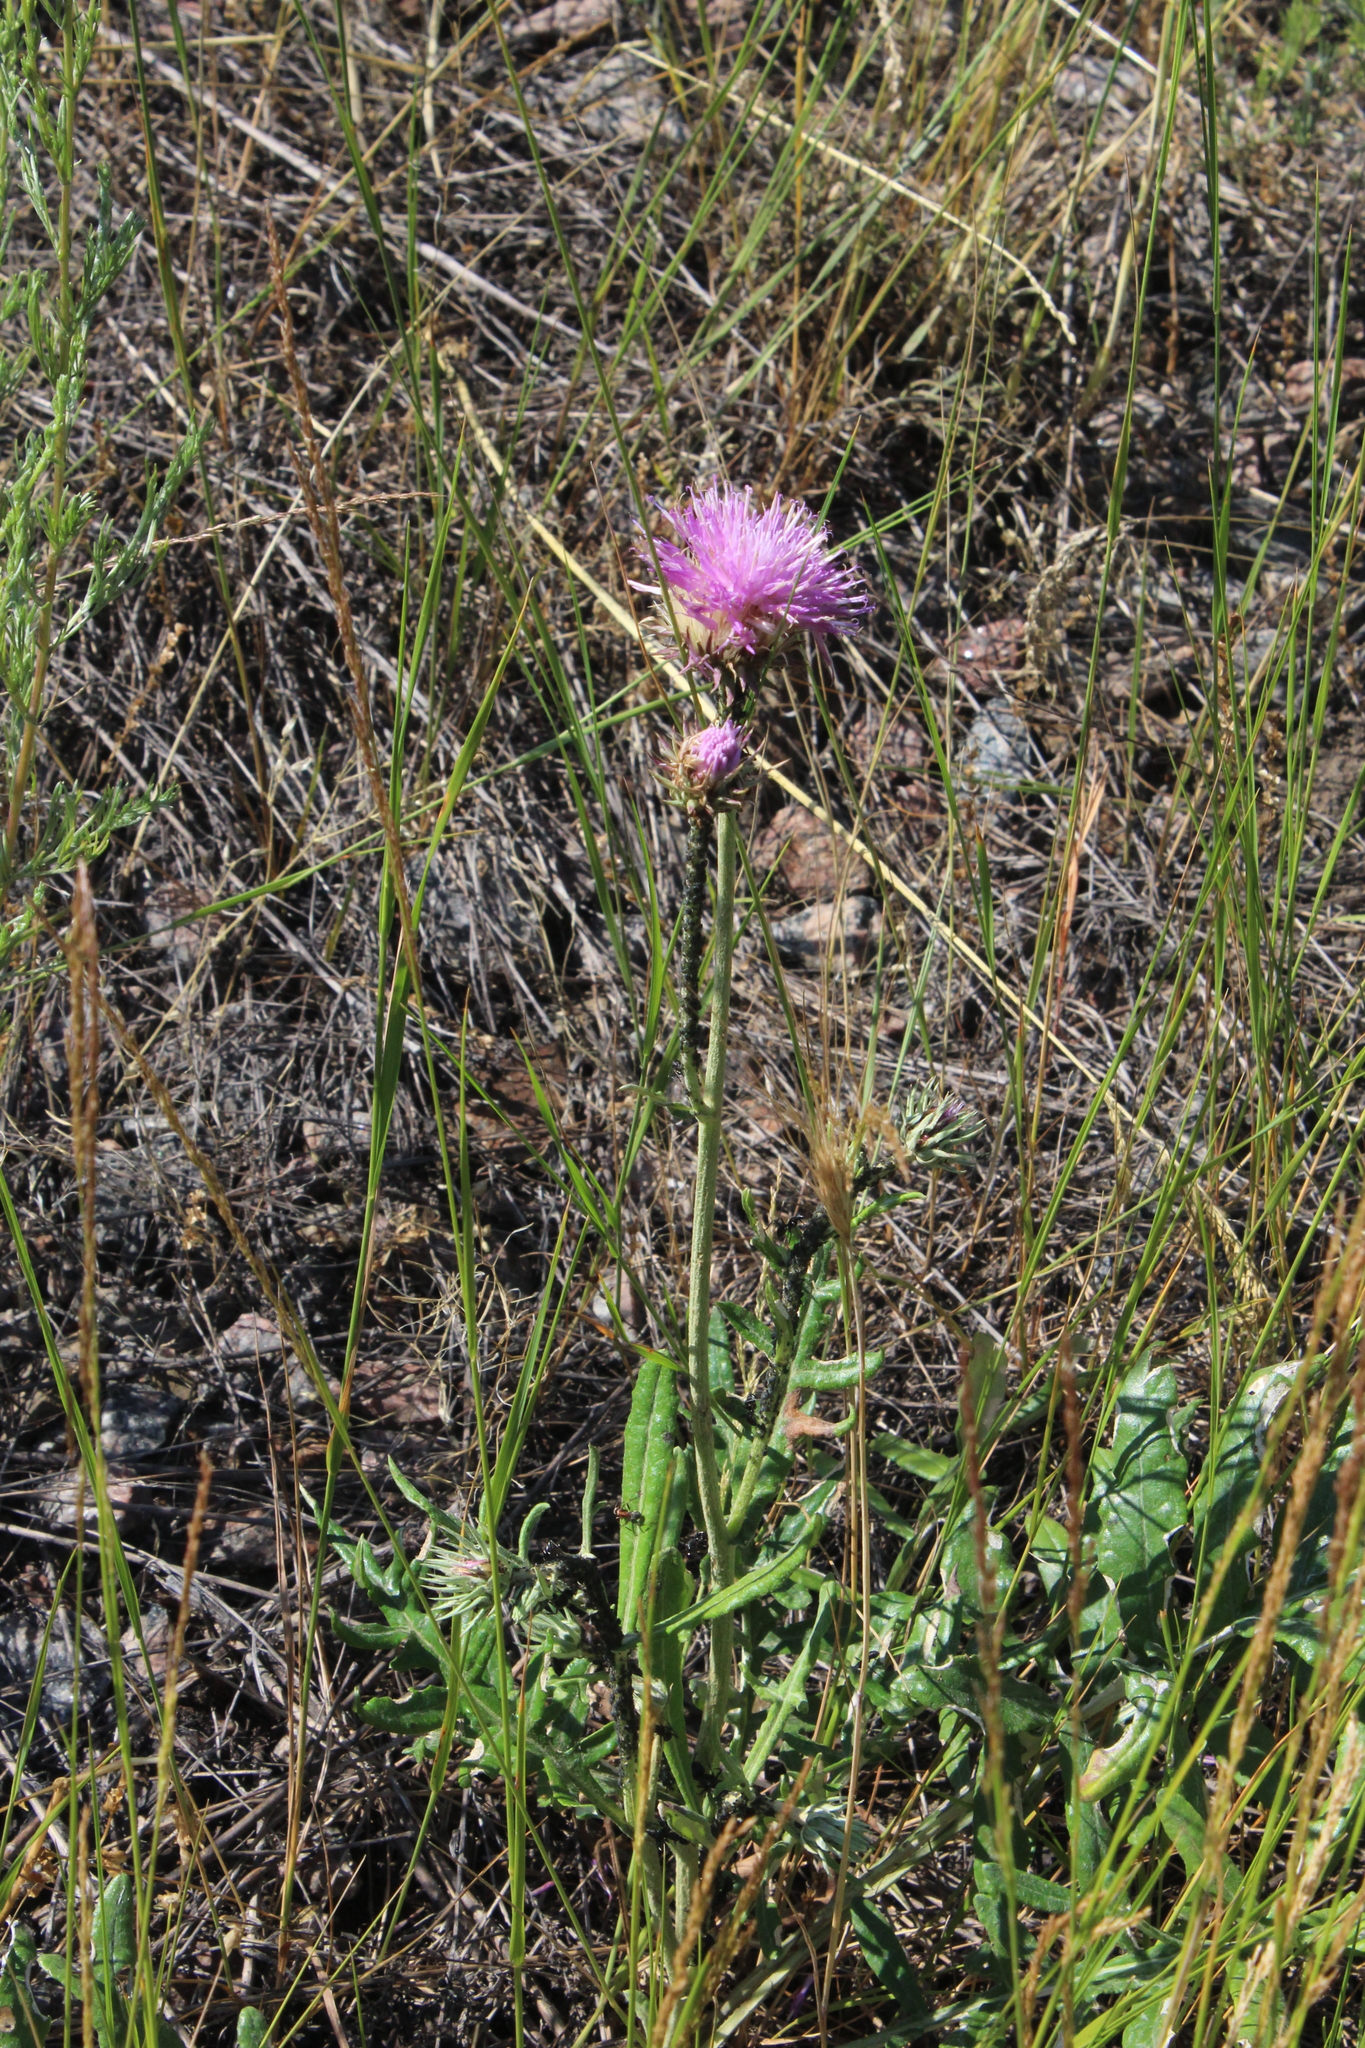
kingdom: Plantae
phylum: Tracheophyta
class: Magnoliopsida
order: Asterales
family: Asteraceae
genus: Jurinea
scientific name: Jurinea cyanoides
